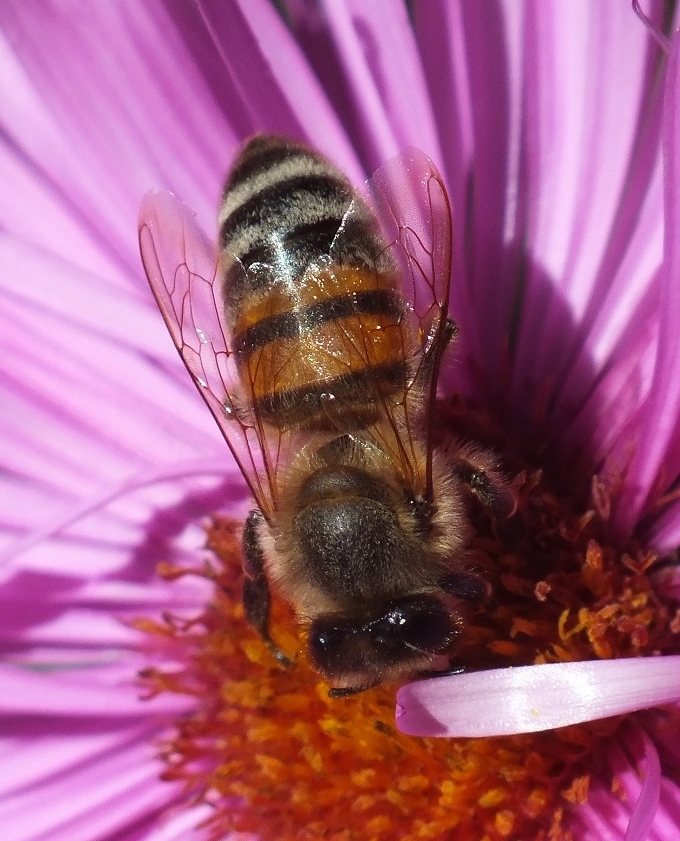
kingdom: Animalia
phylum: Arthropoda
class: Insecta
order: Hymenoptera
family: Apidae
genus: Apis
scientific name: Apis mellifera
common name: Honey bee
